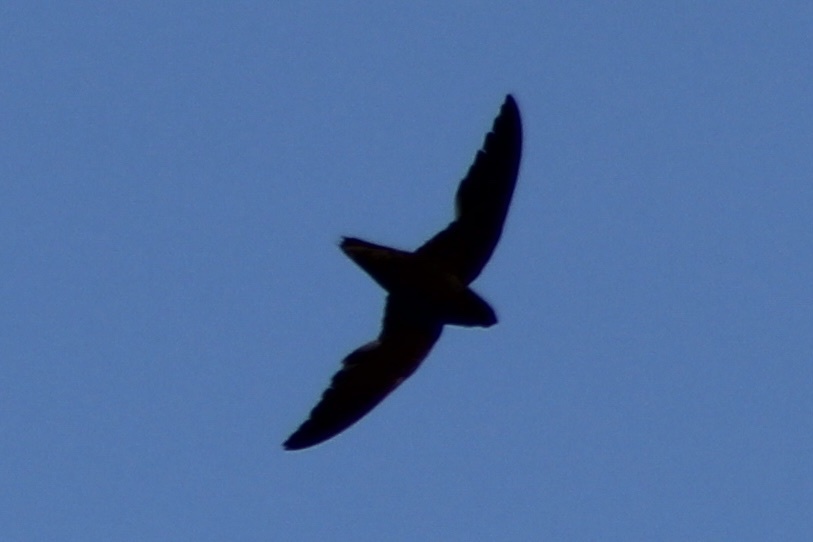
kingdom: Animalia
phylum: Chordata
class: Aves
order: Apodiformes
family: Apodidae
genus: Chaetura
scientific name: Chaetura pelagica
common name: Chimney swift
